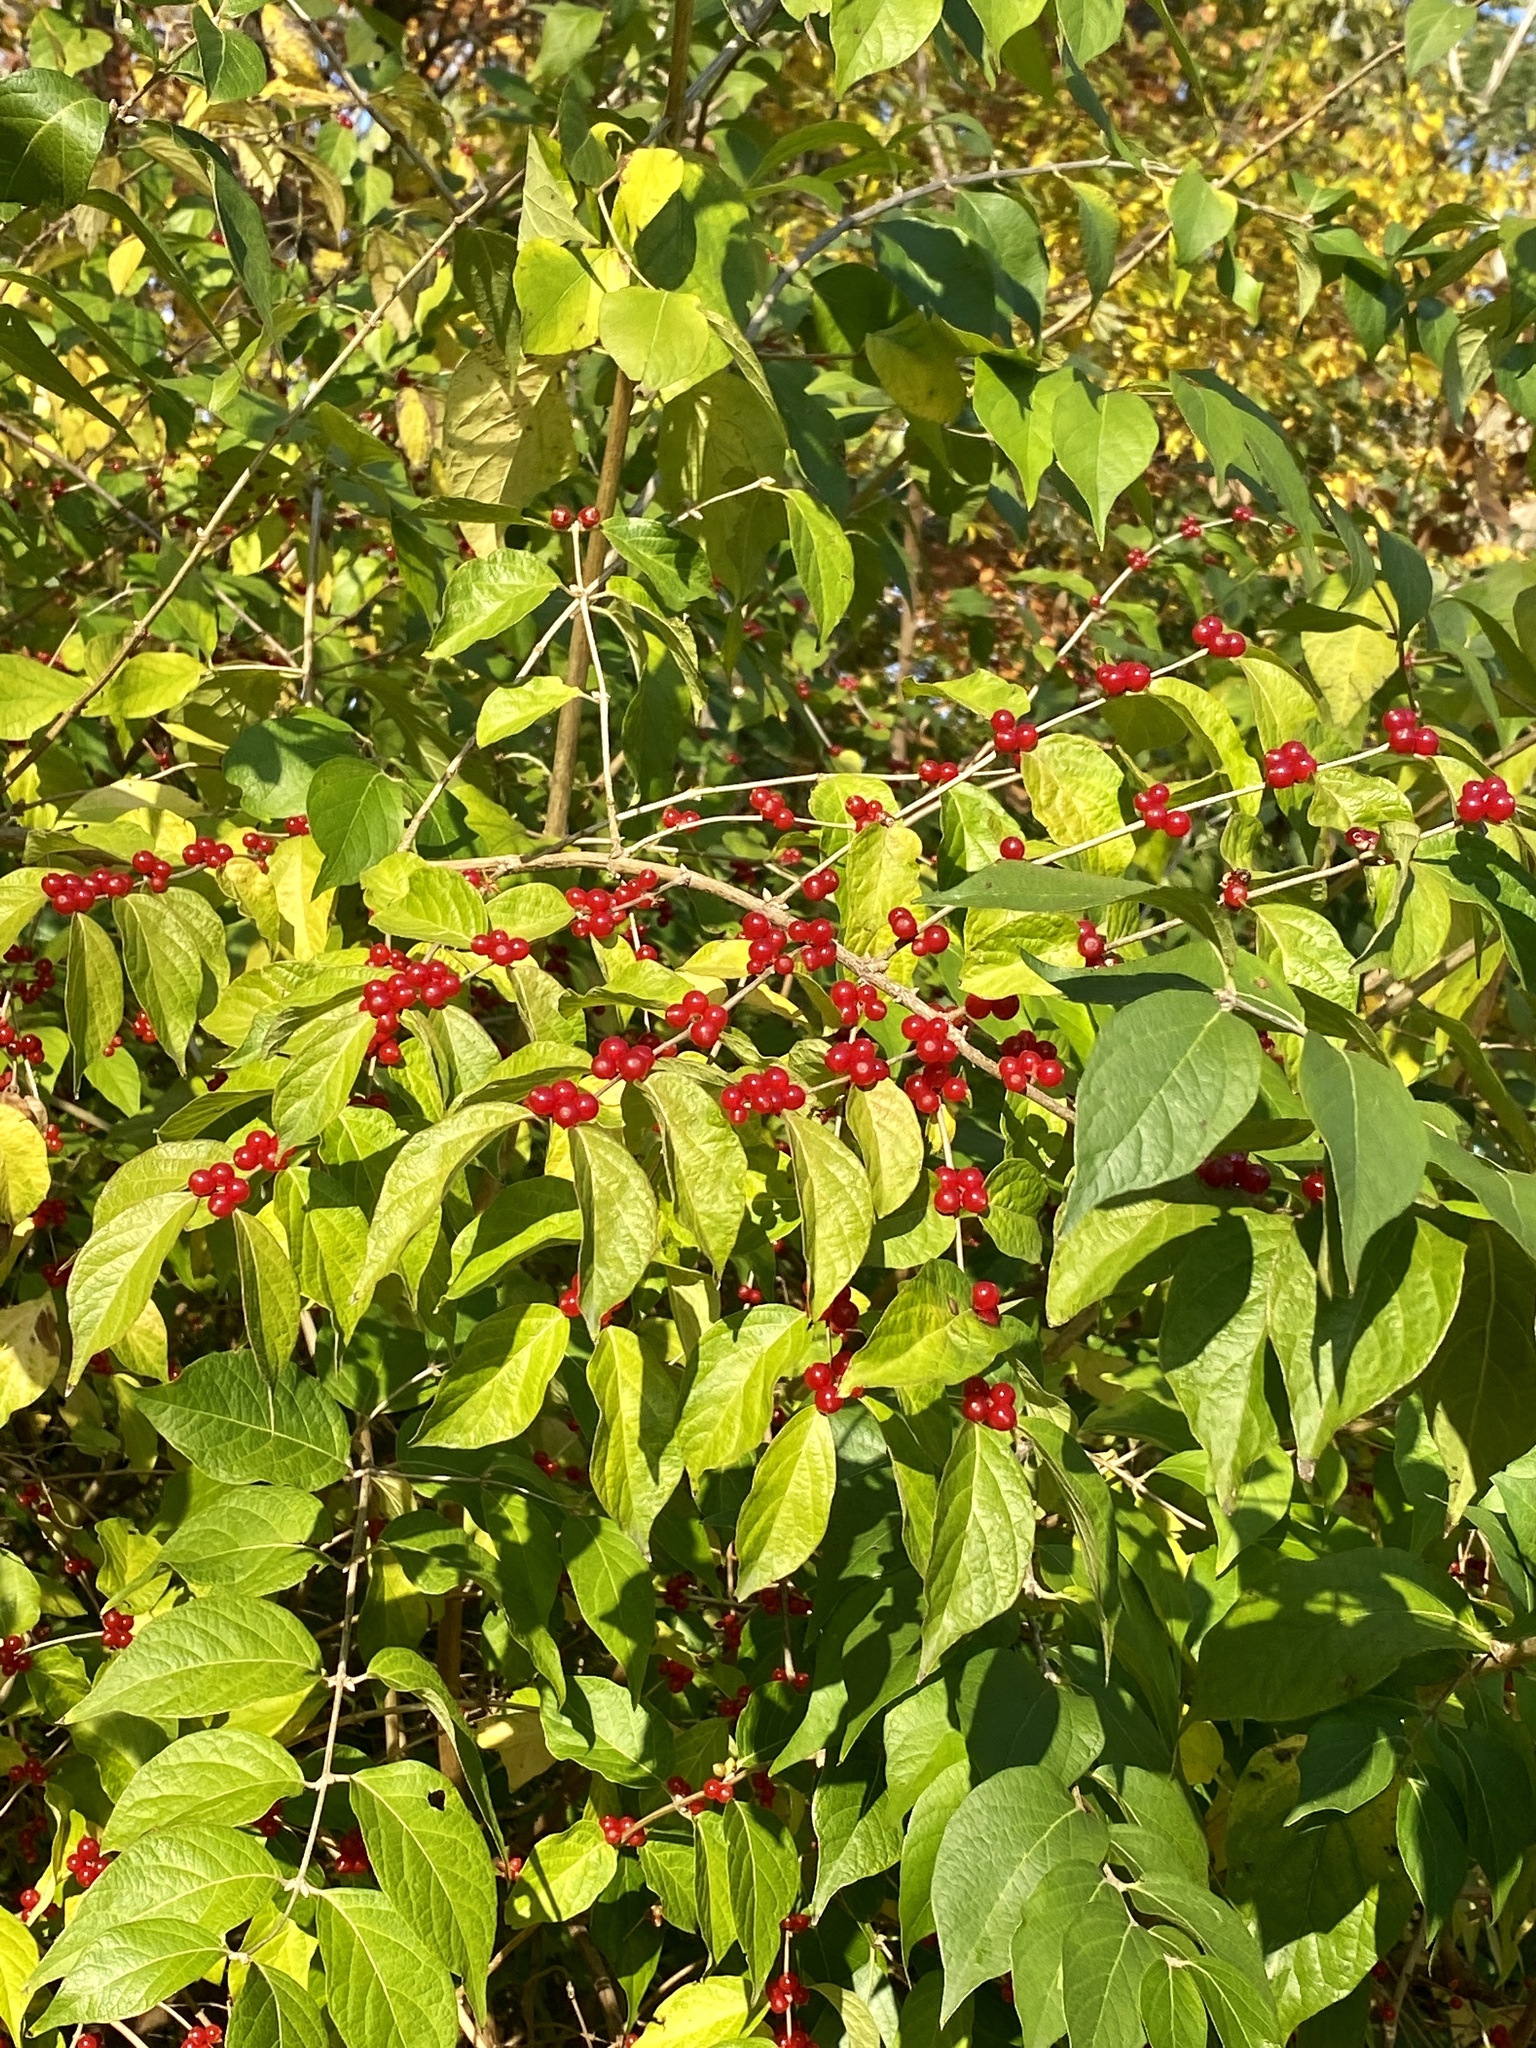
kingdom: Plantae
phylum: Tracheophyta
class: Magnoliopsida
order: Dipsacales
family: Caprifoliaceae
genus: Lonicera
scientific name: Lonicera maackii
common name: Amur honeysuckle
